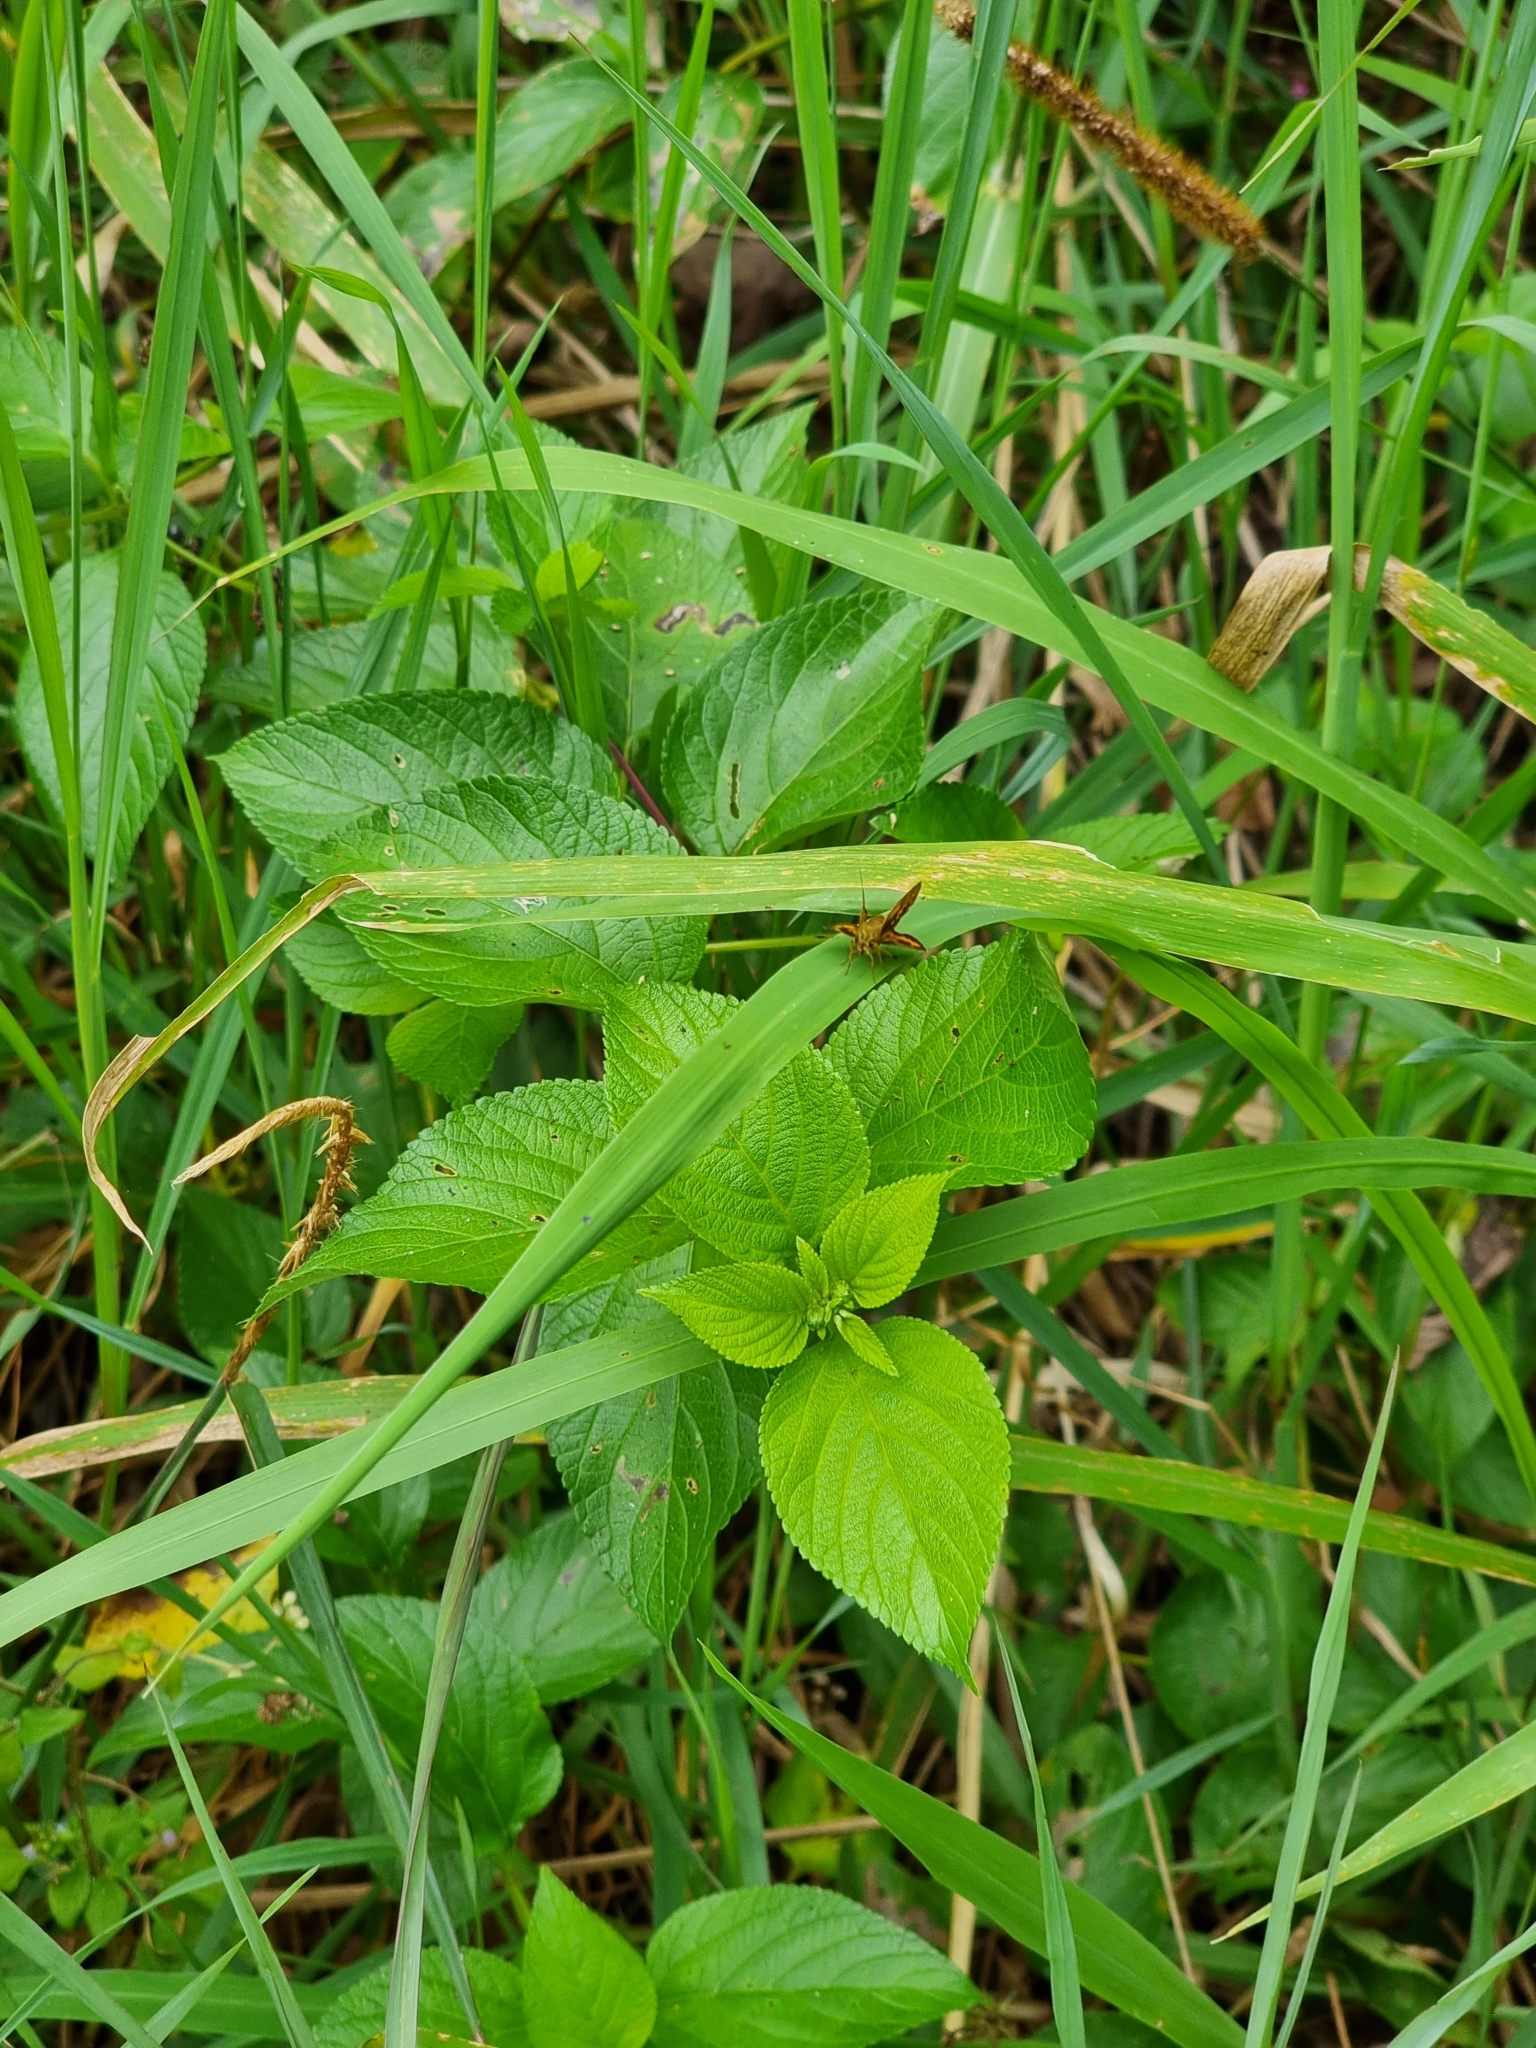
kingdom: Animalia
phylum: Arthropoda
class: Insecta
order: Lepidoptera
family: Hesperiidae
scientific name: Hesperiidae
